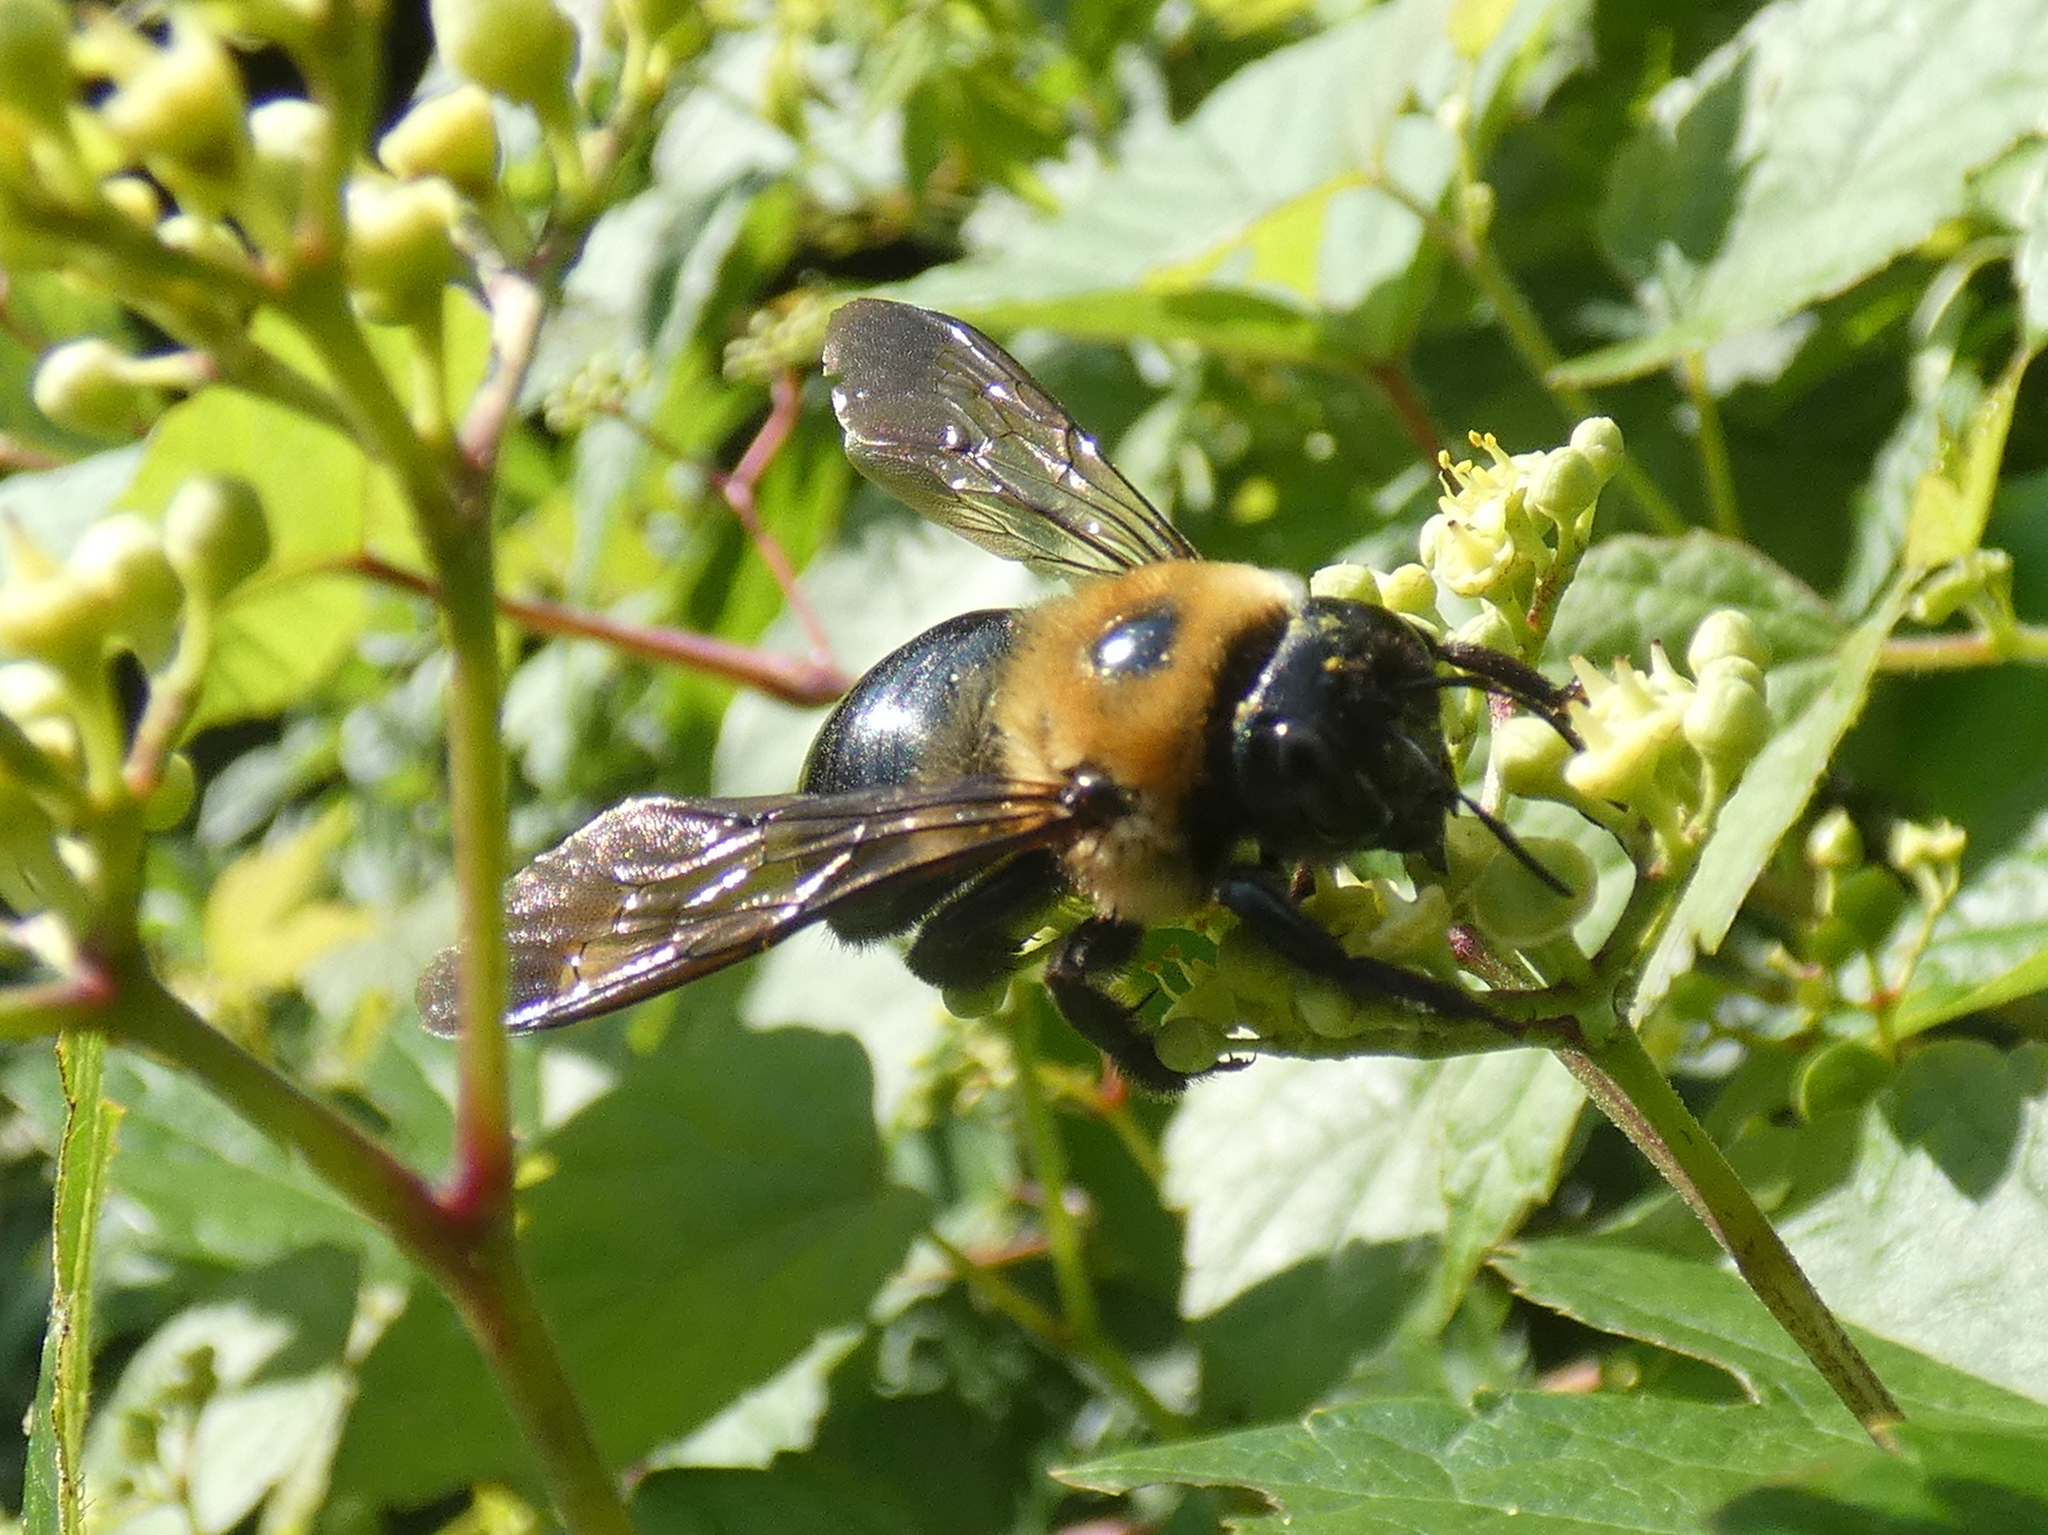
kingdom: Animalia
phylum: Arthropoda
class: Insecta
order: Hymenoptera
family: Apidae
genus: Xylocopa
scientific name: Xylocopa virginica
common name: Carpenter bee
